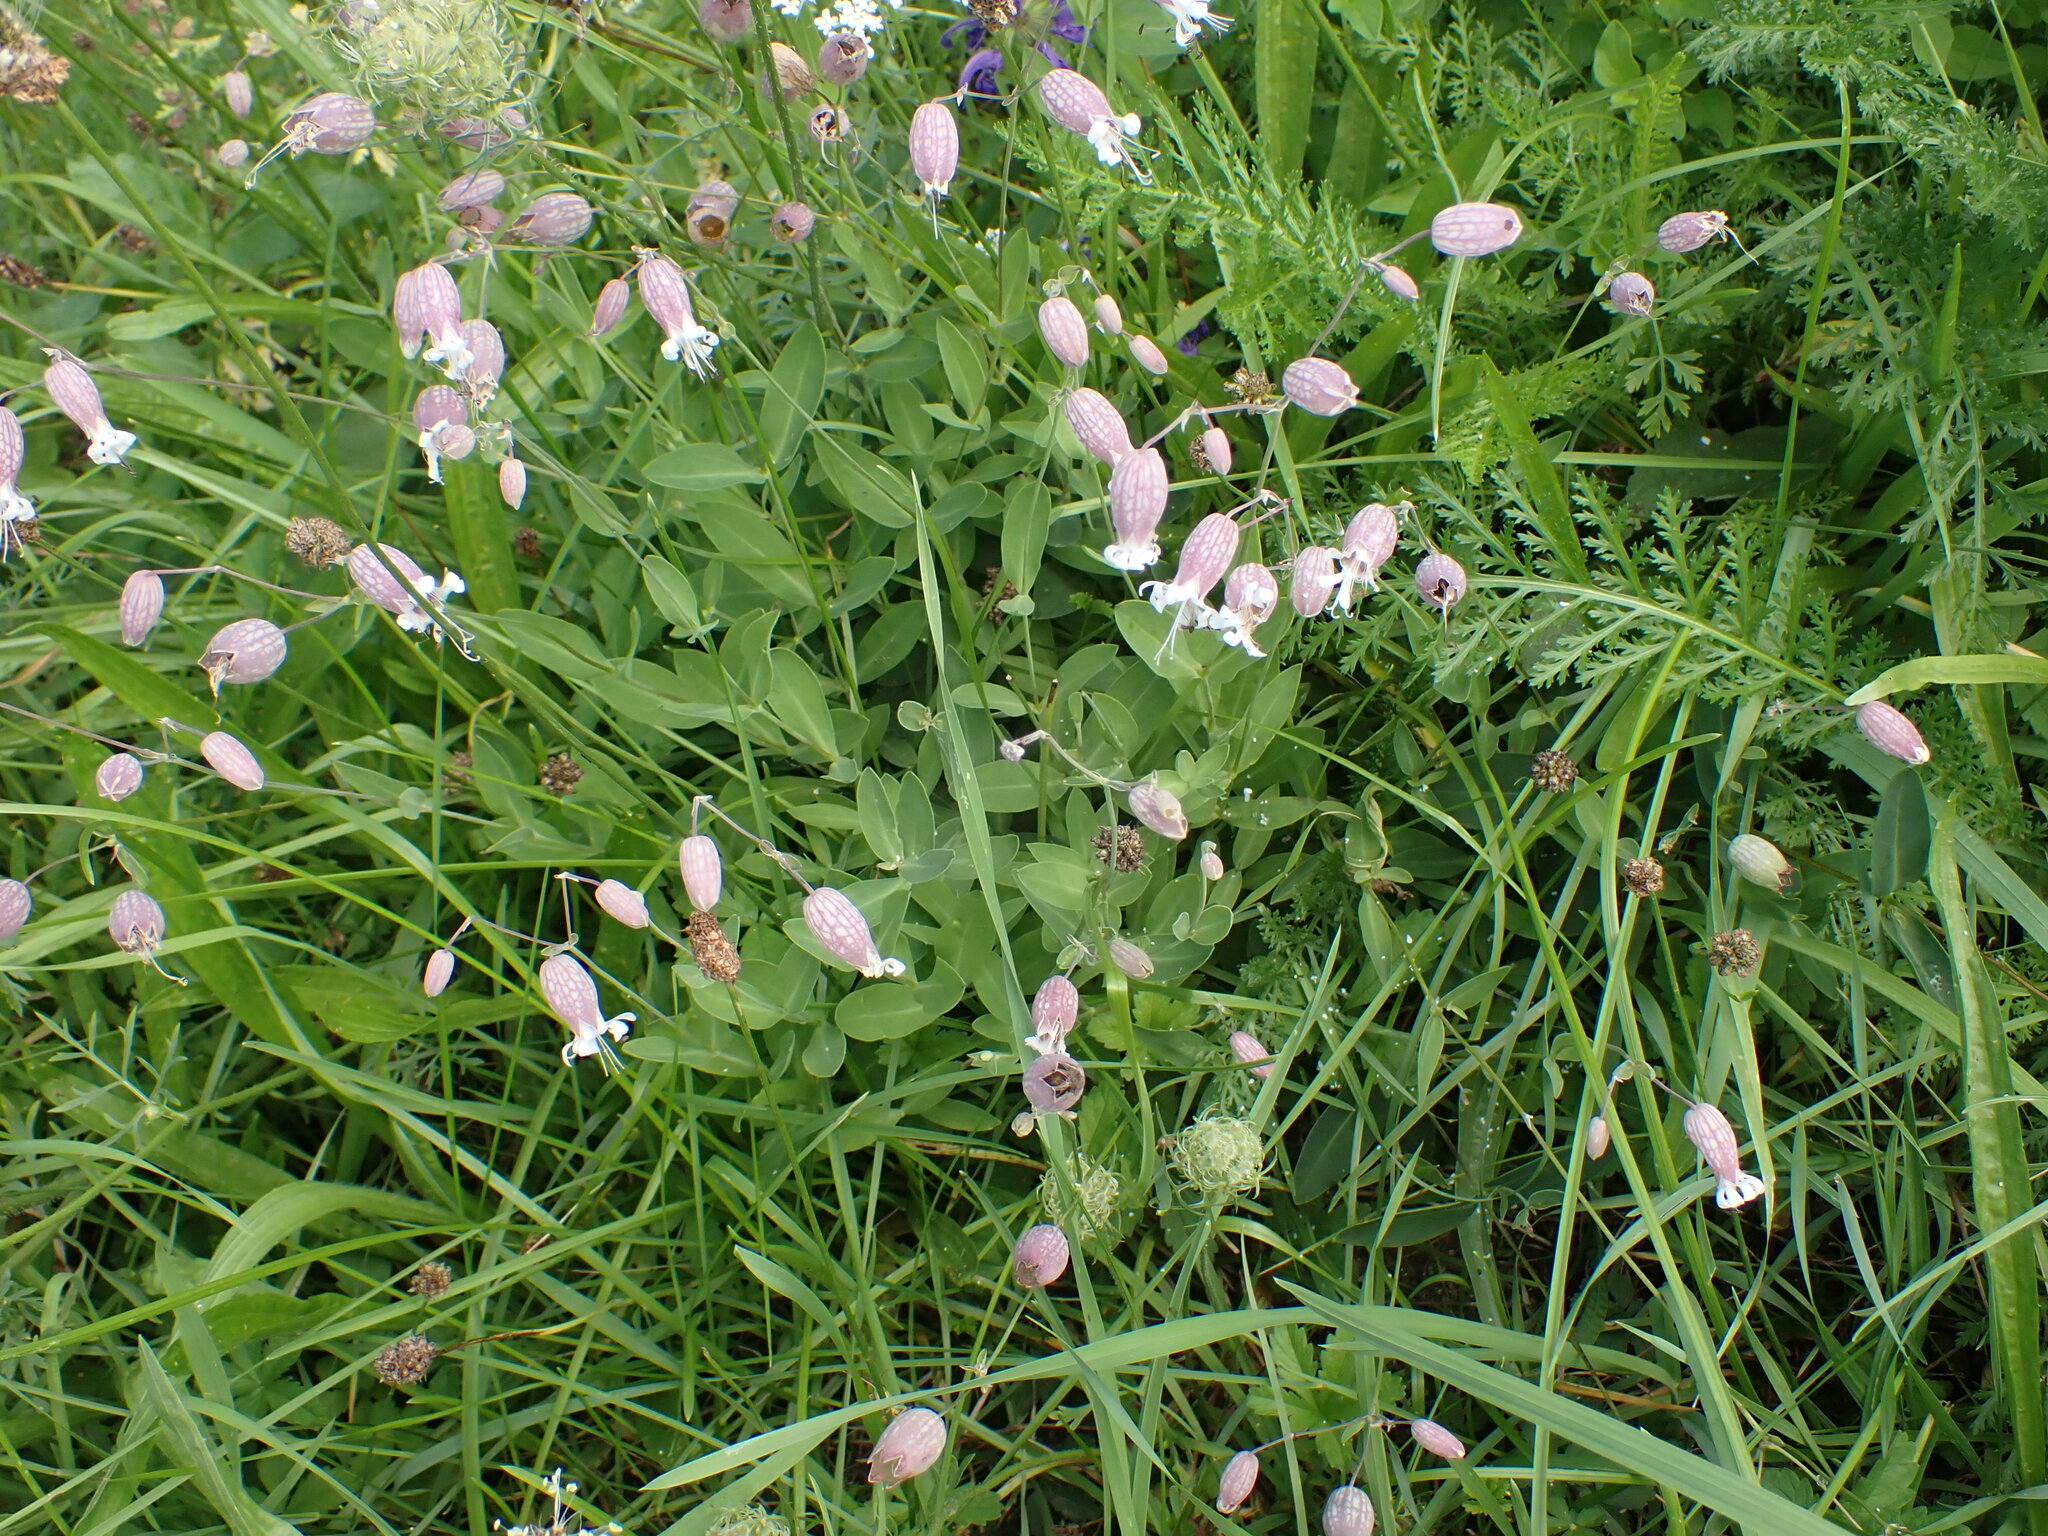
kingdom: Plantae
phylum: Tracheophyta
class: Magnoliopsida
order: Caryophyllales
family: Caryophyllaceae
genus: Silene
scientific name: Silene vulgaris
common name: Bladder campion
